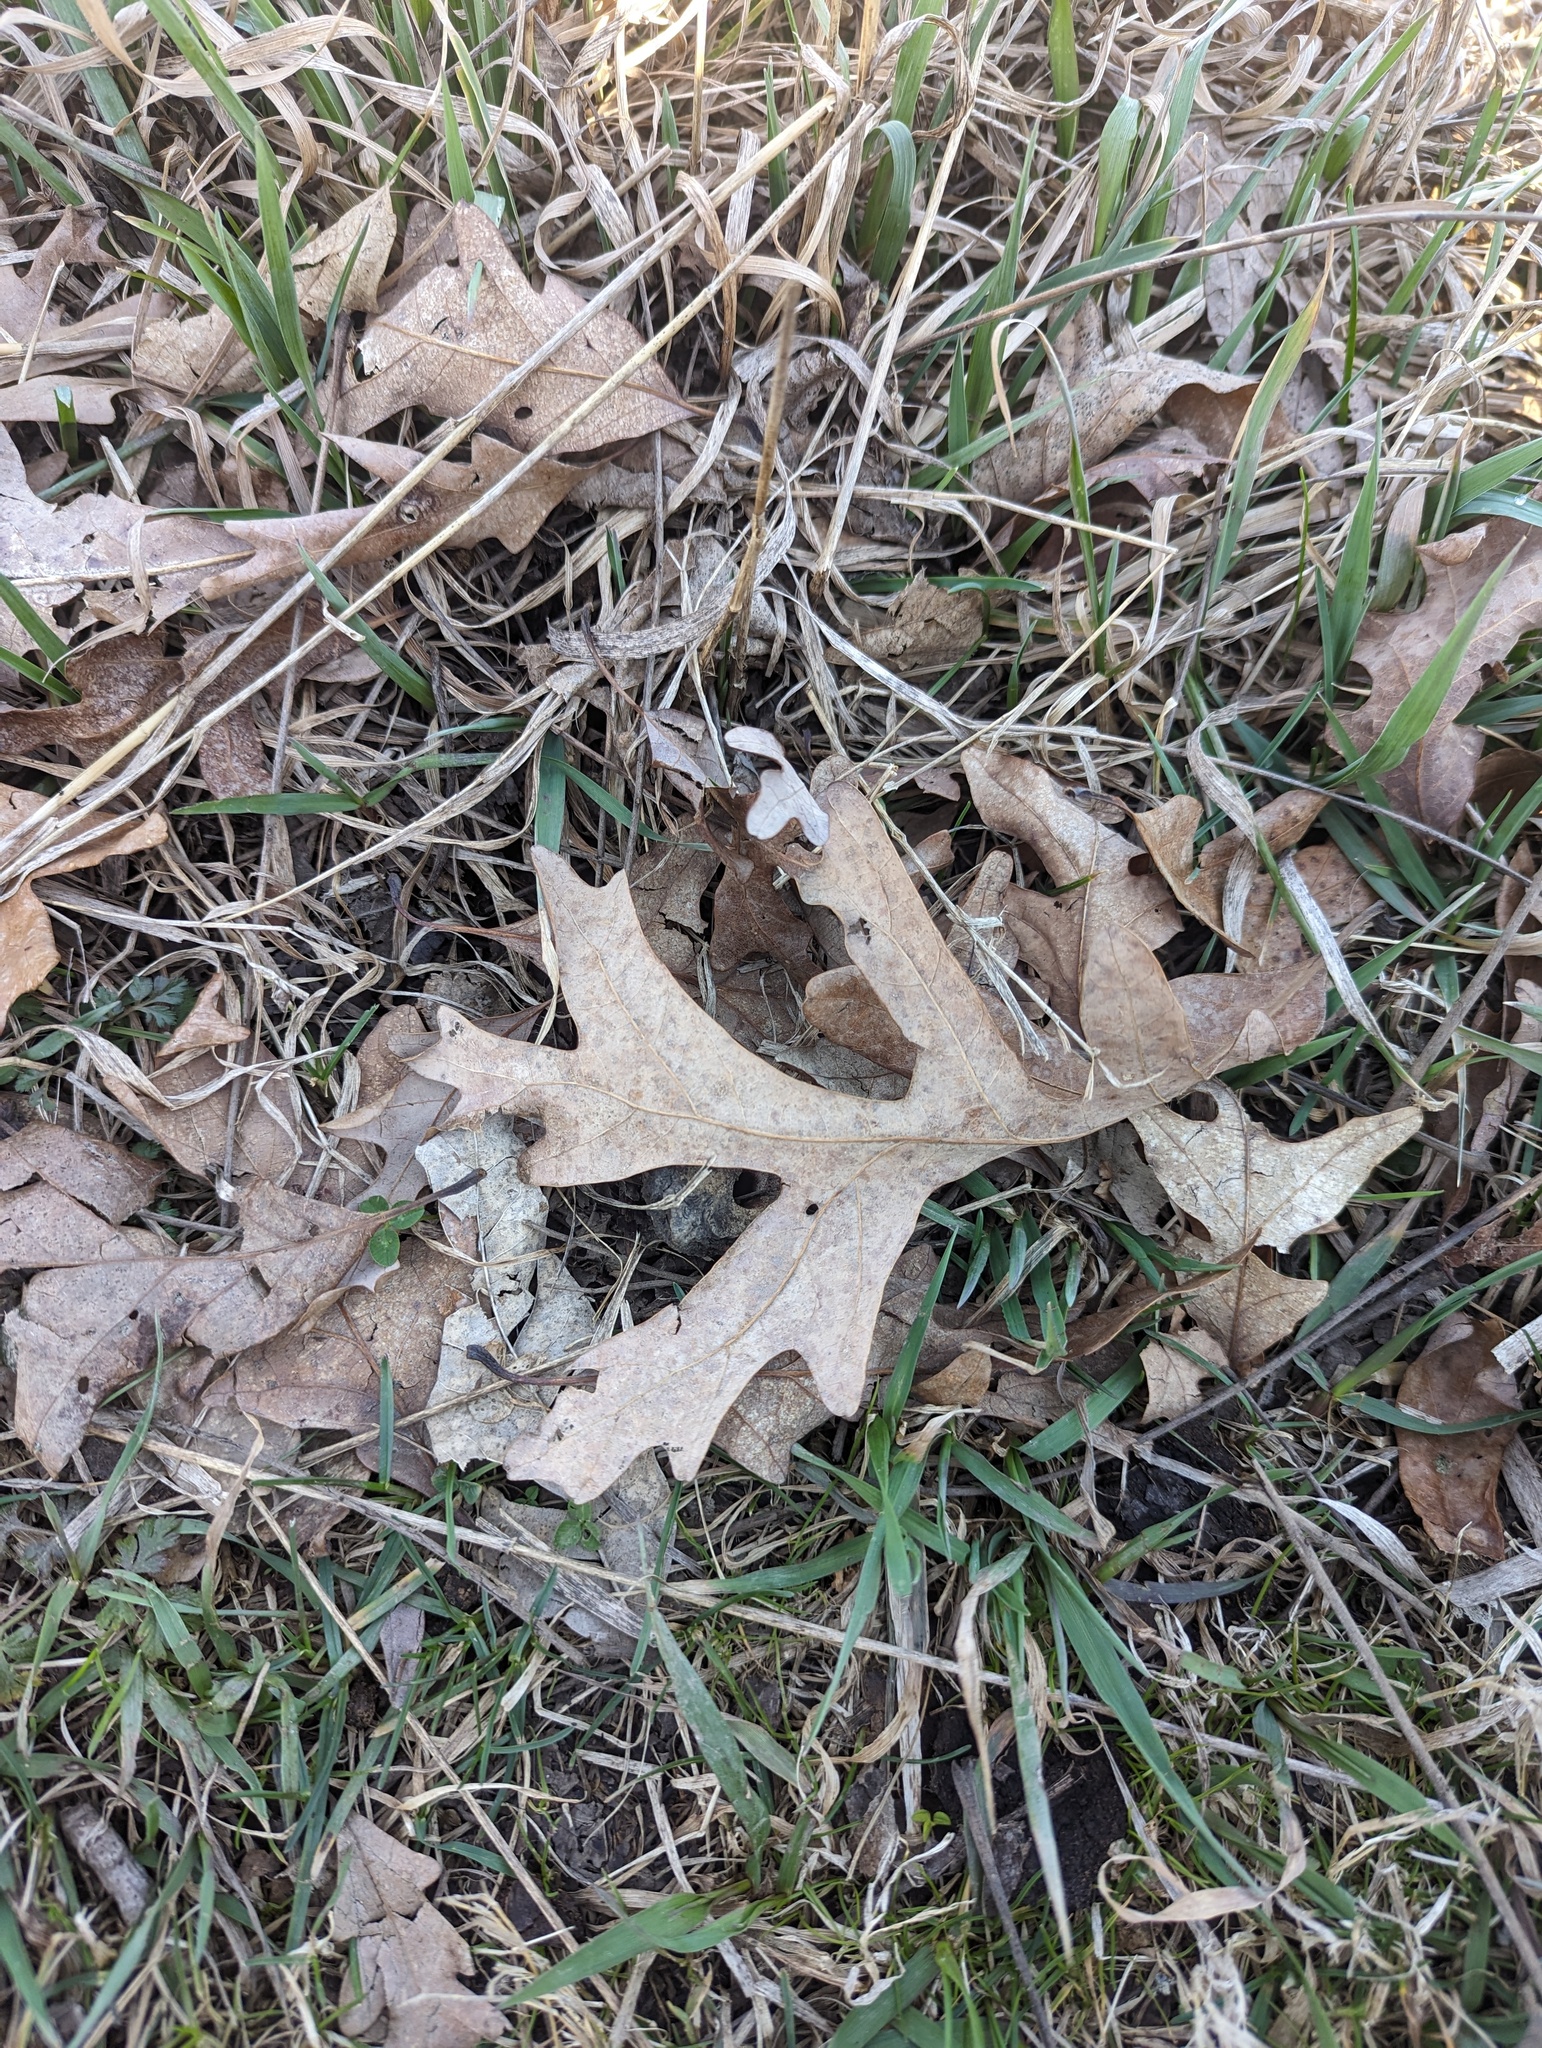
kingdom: Plantae
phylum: Tracheophyta
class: Magnoliopsida
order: Fagales
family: Fagaceae
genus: Quercus
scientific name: Quercus alba
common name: White oak
